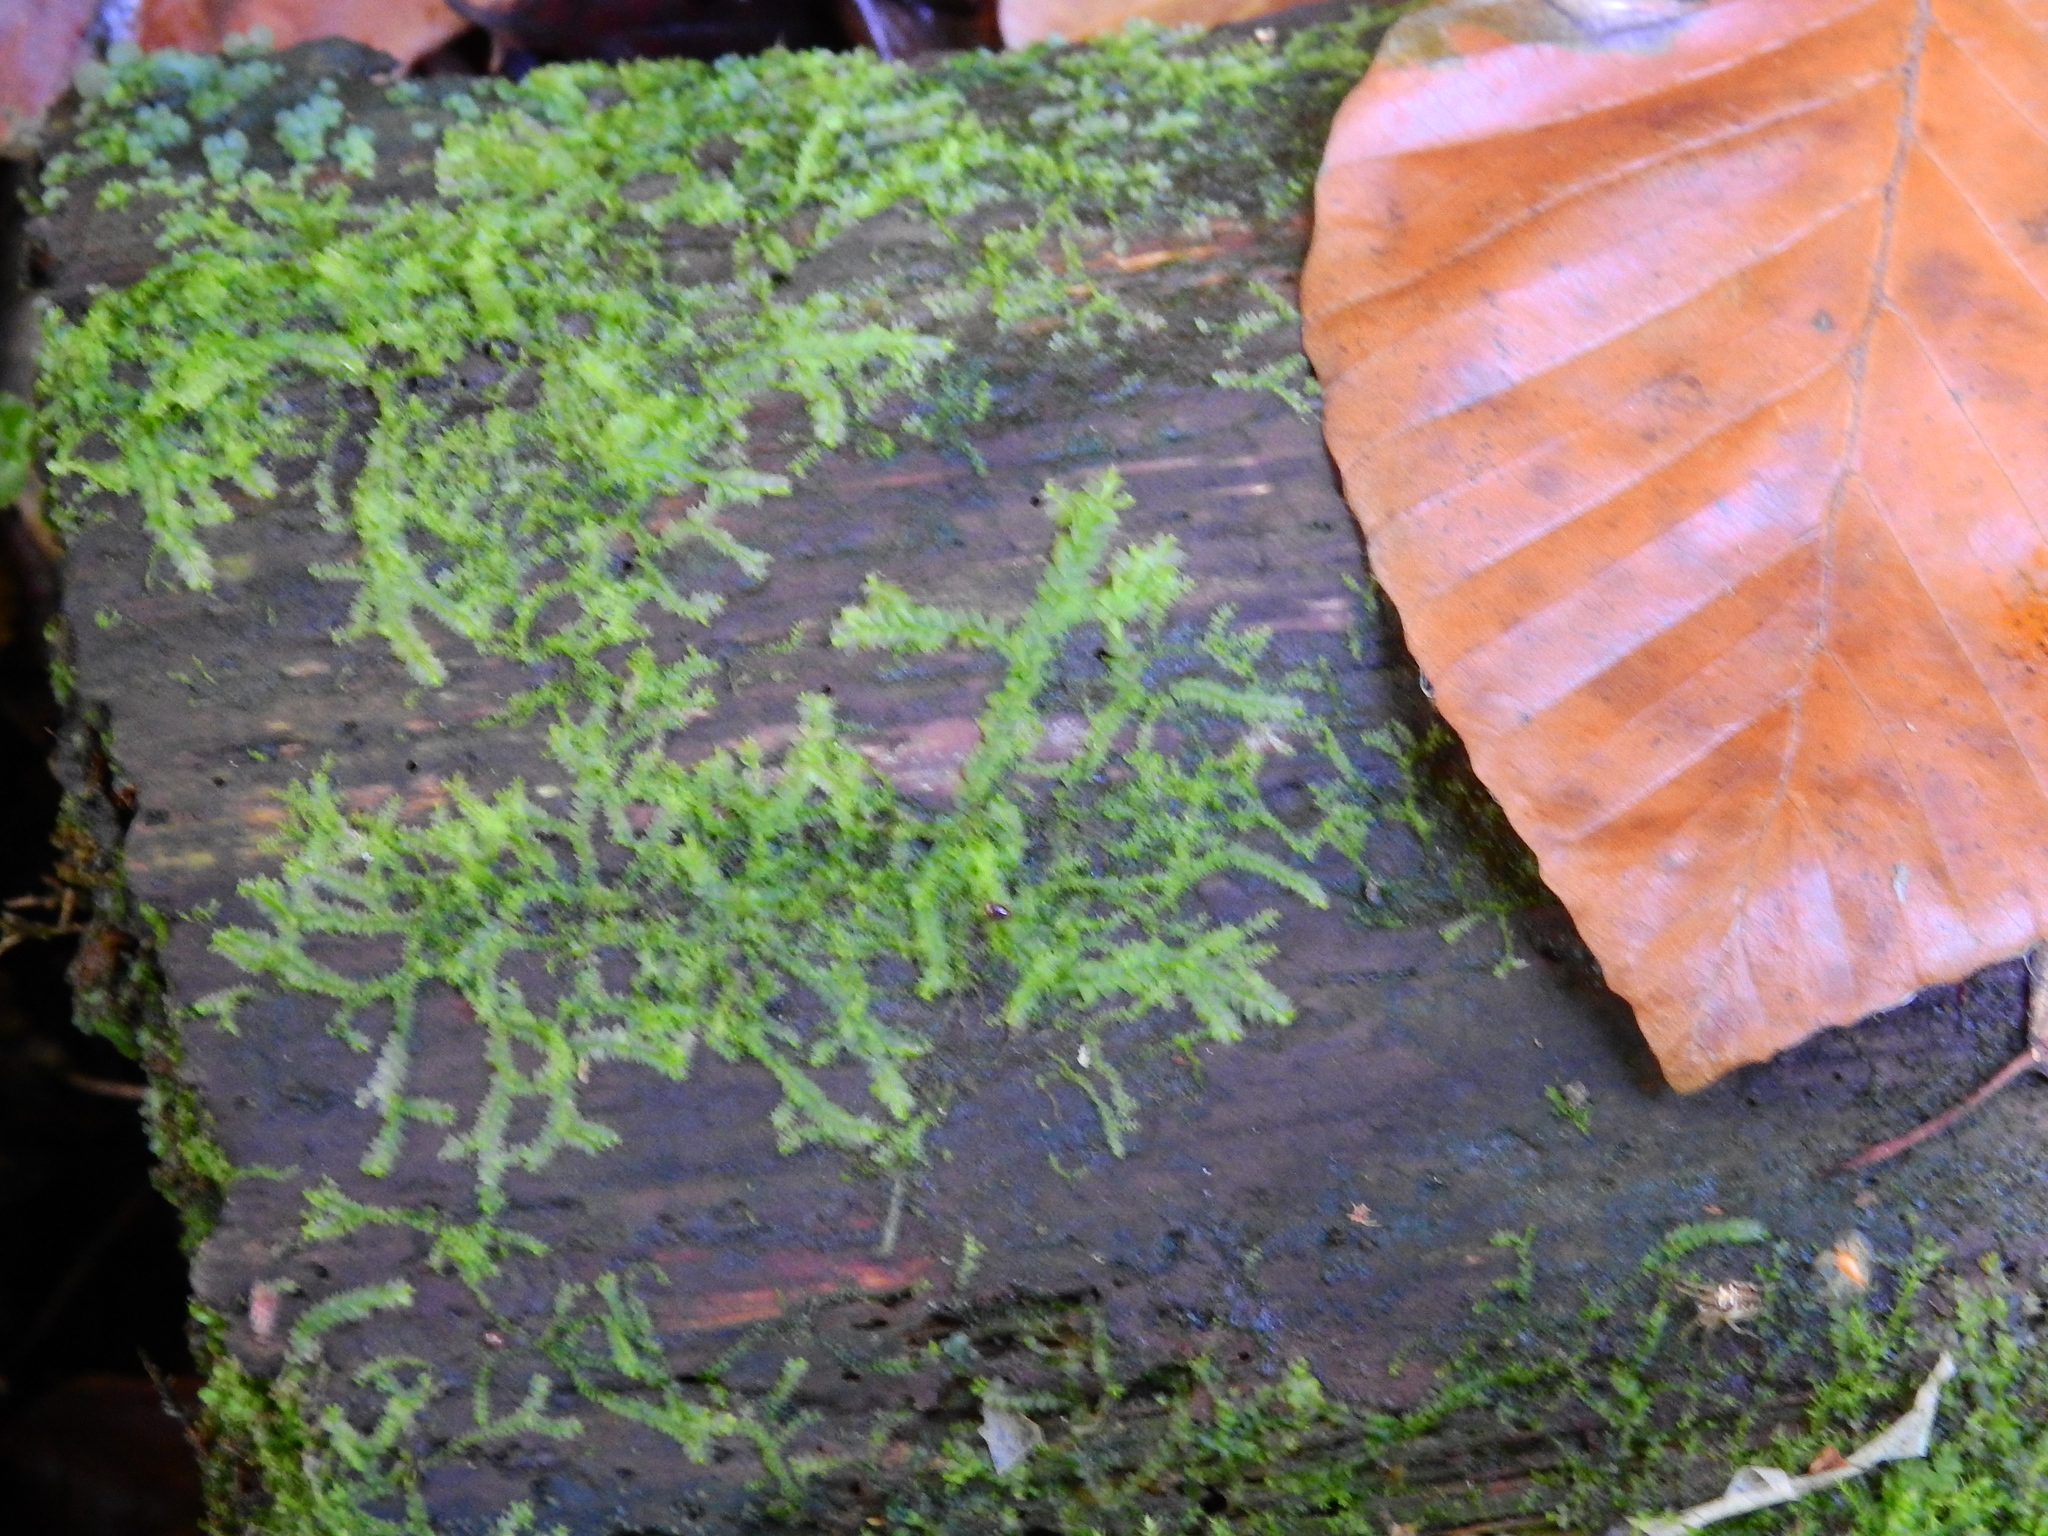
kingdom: Plantae
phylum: Marchantiophyta
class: Jungermanniopsida
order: Jungermanniales
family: Lophocoleaceae
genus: Lophocolea
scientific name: Lophocolea heterophylla
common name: Variable-leaved crestwort
